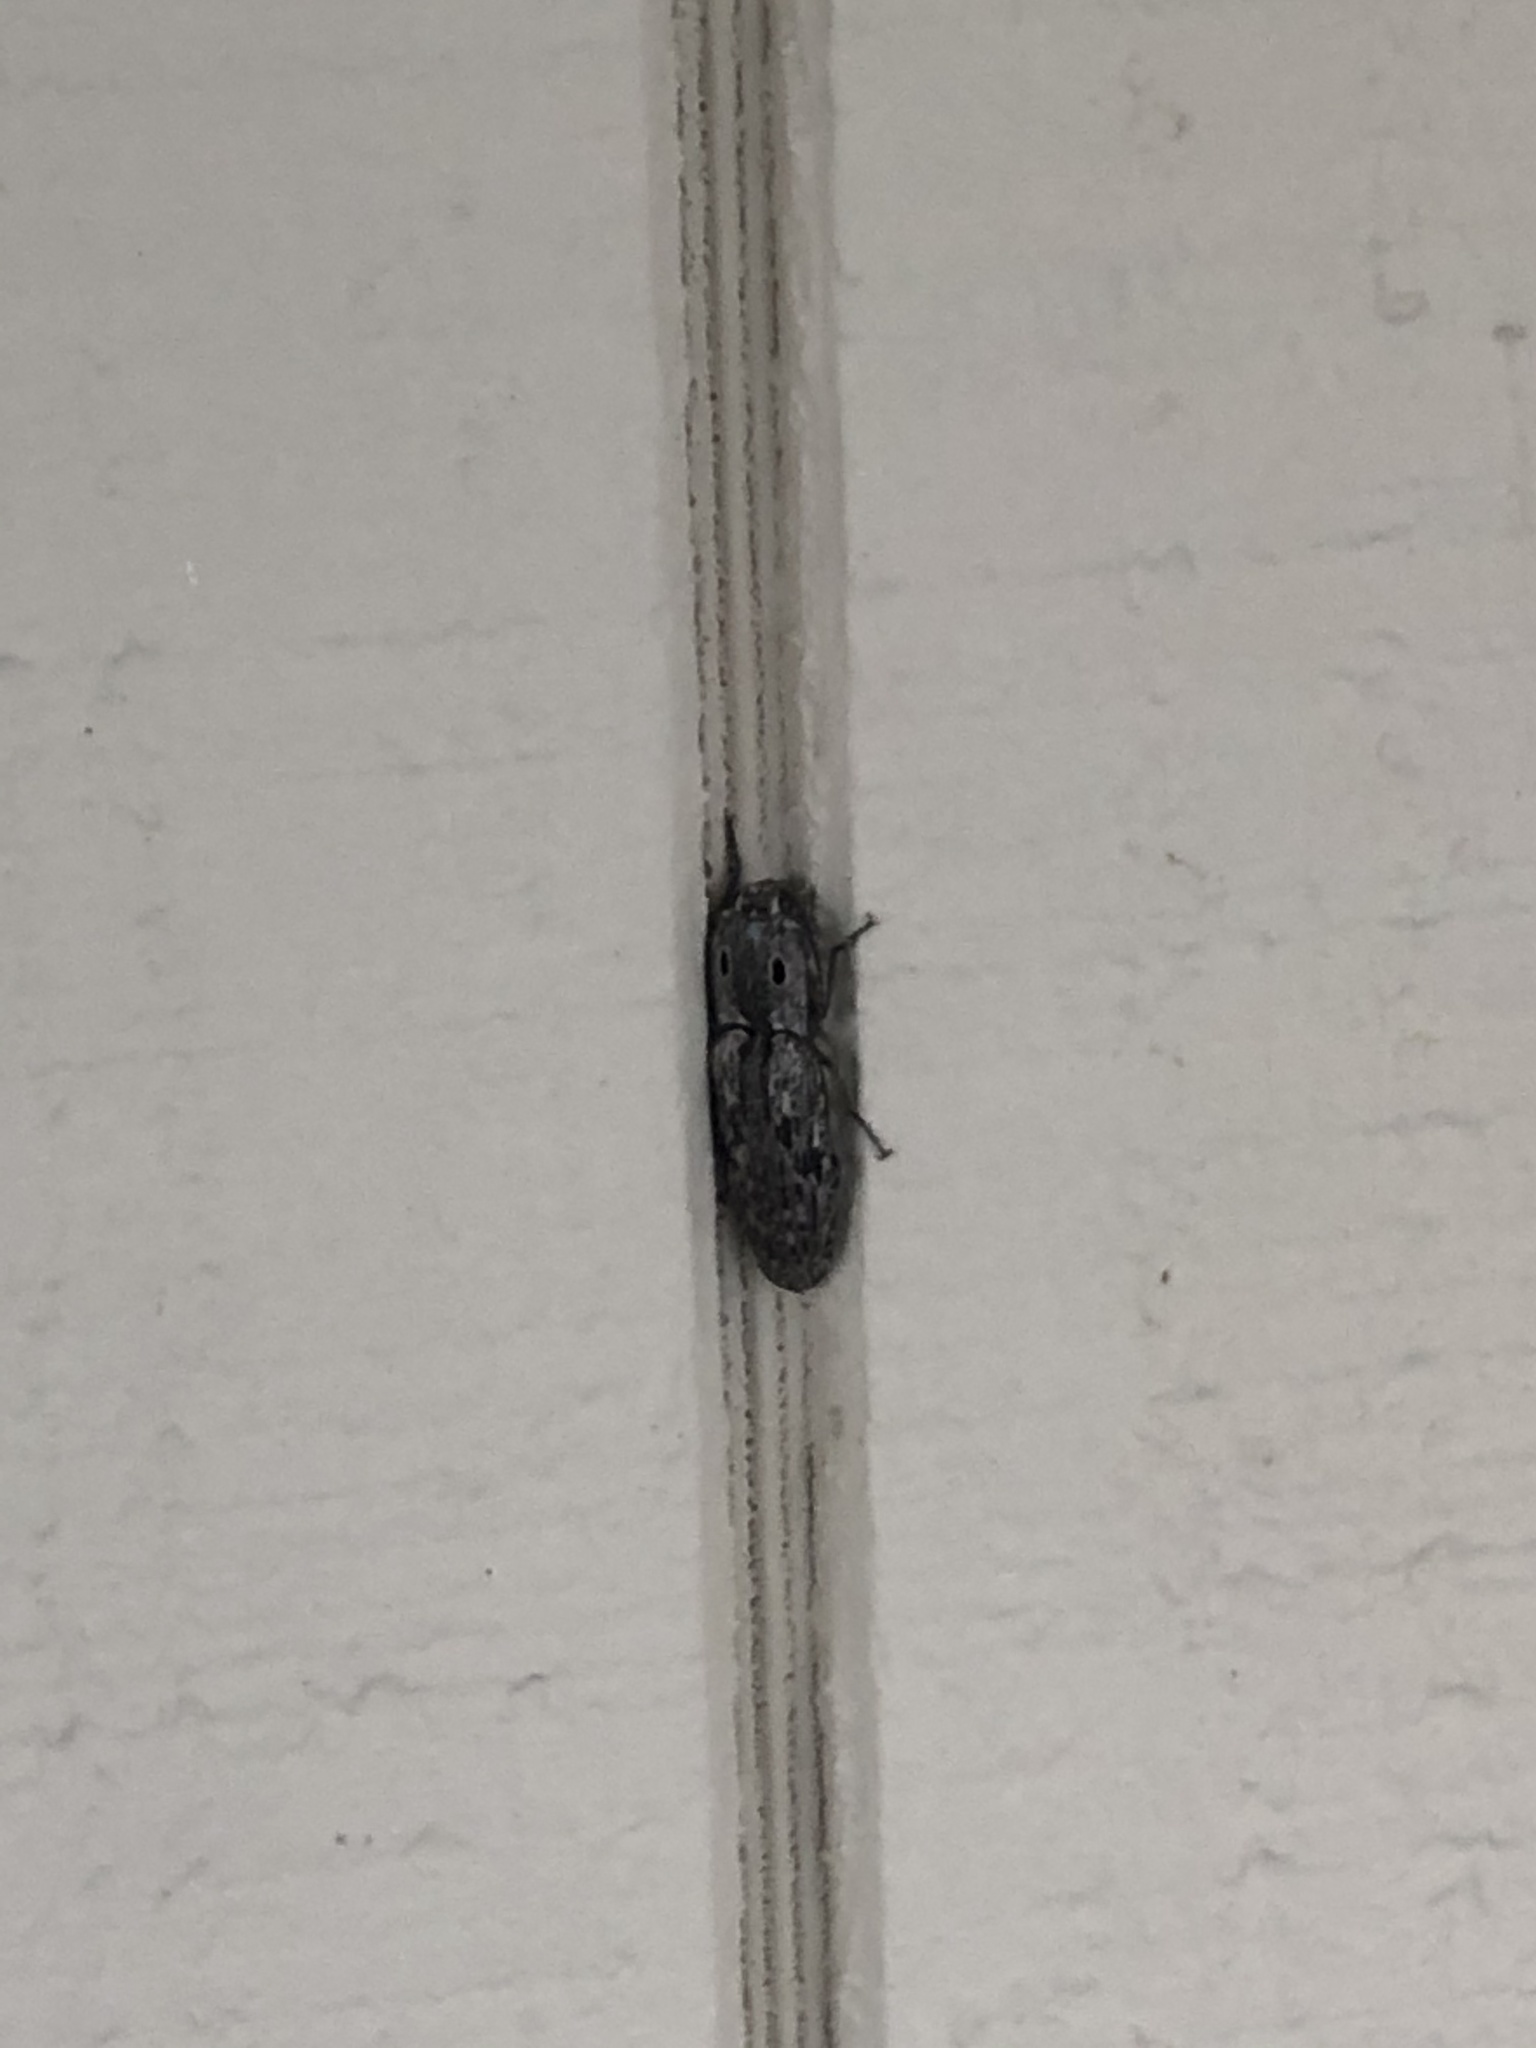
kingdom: Animalia
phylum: Arthropoda
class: Insecta
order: Coleoptera
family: Elateridae
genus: Alaus
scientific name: Alaus myops
